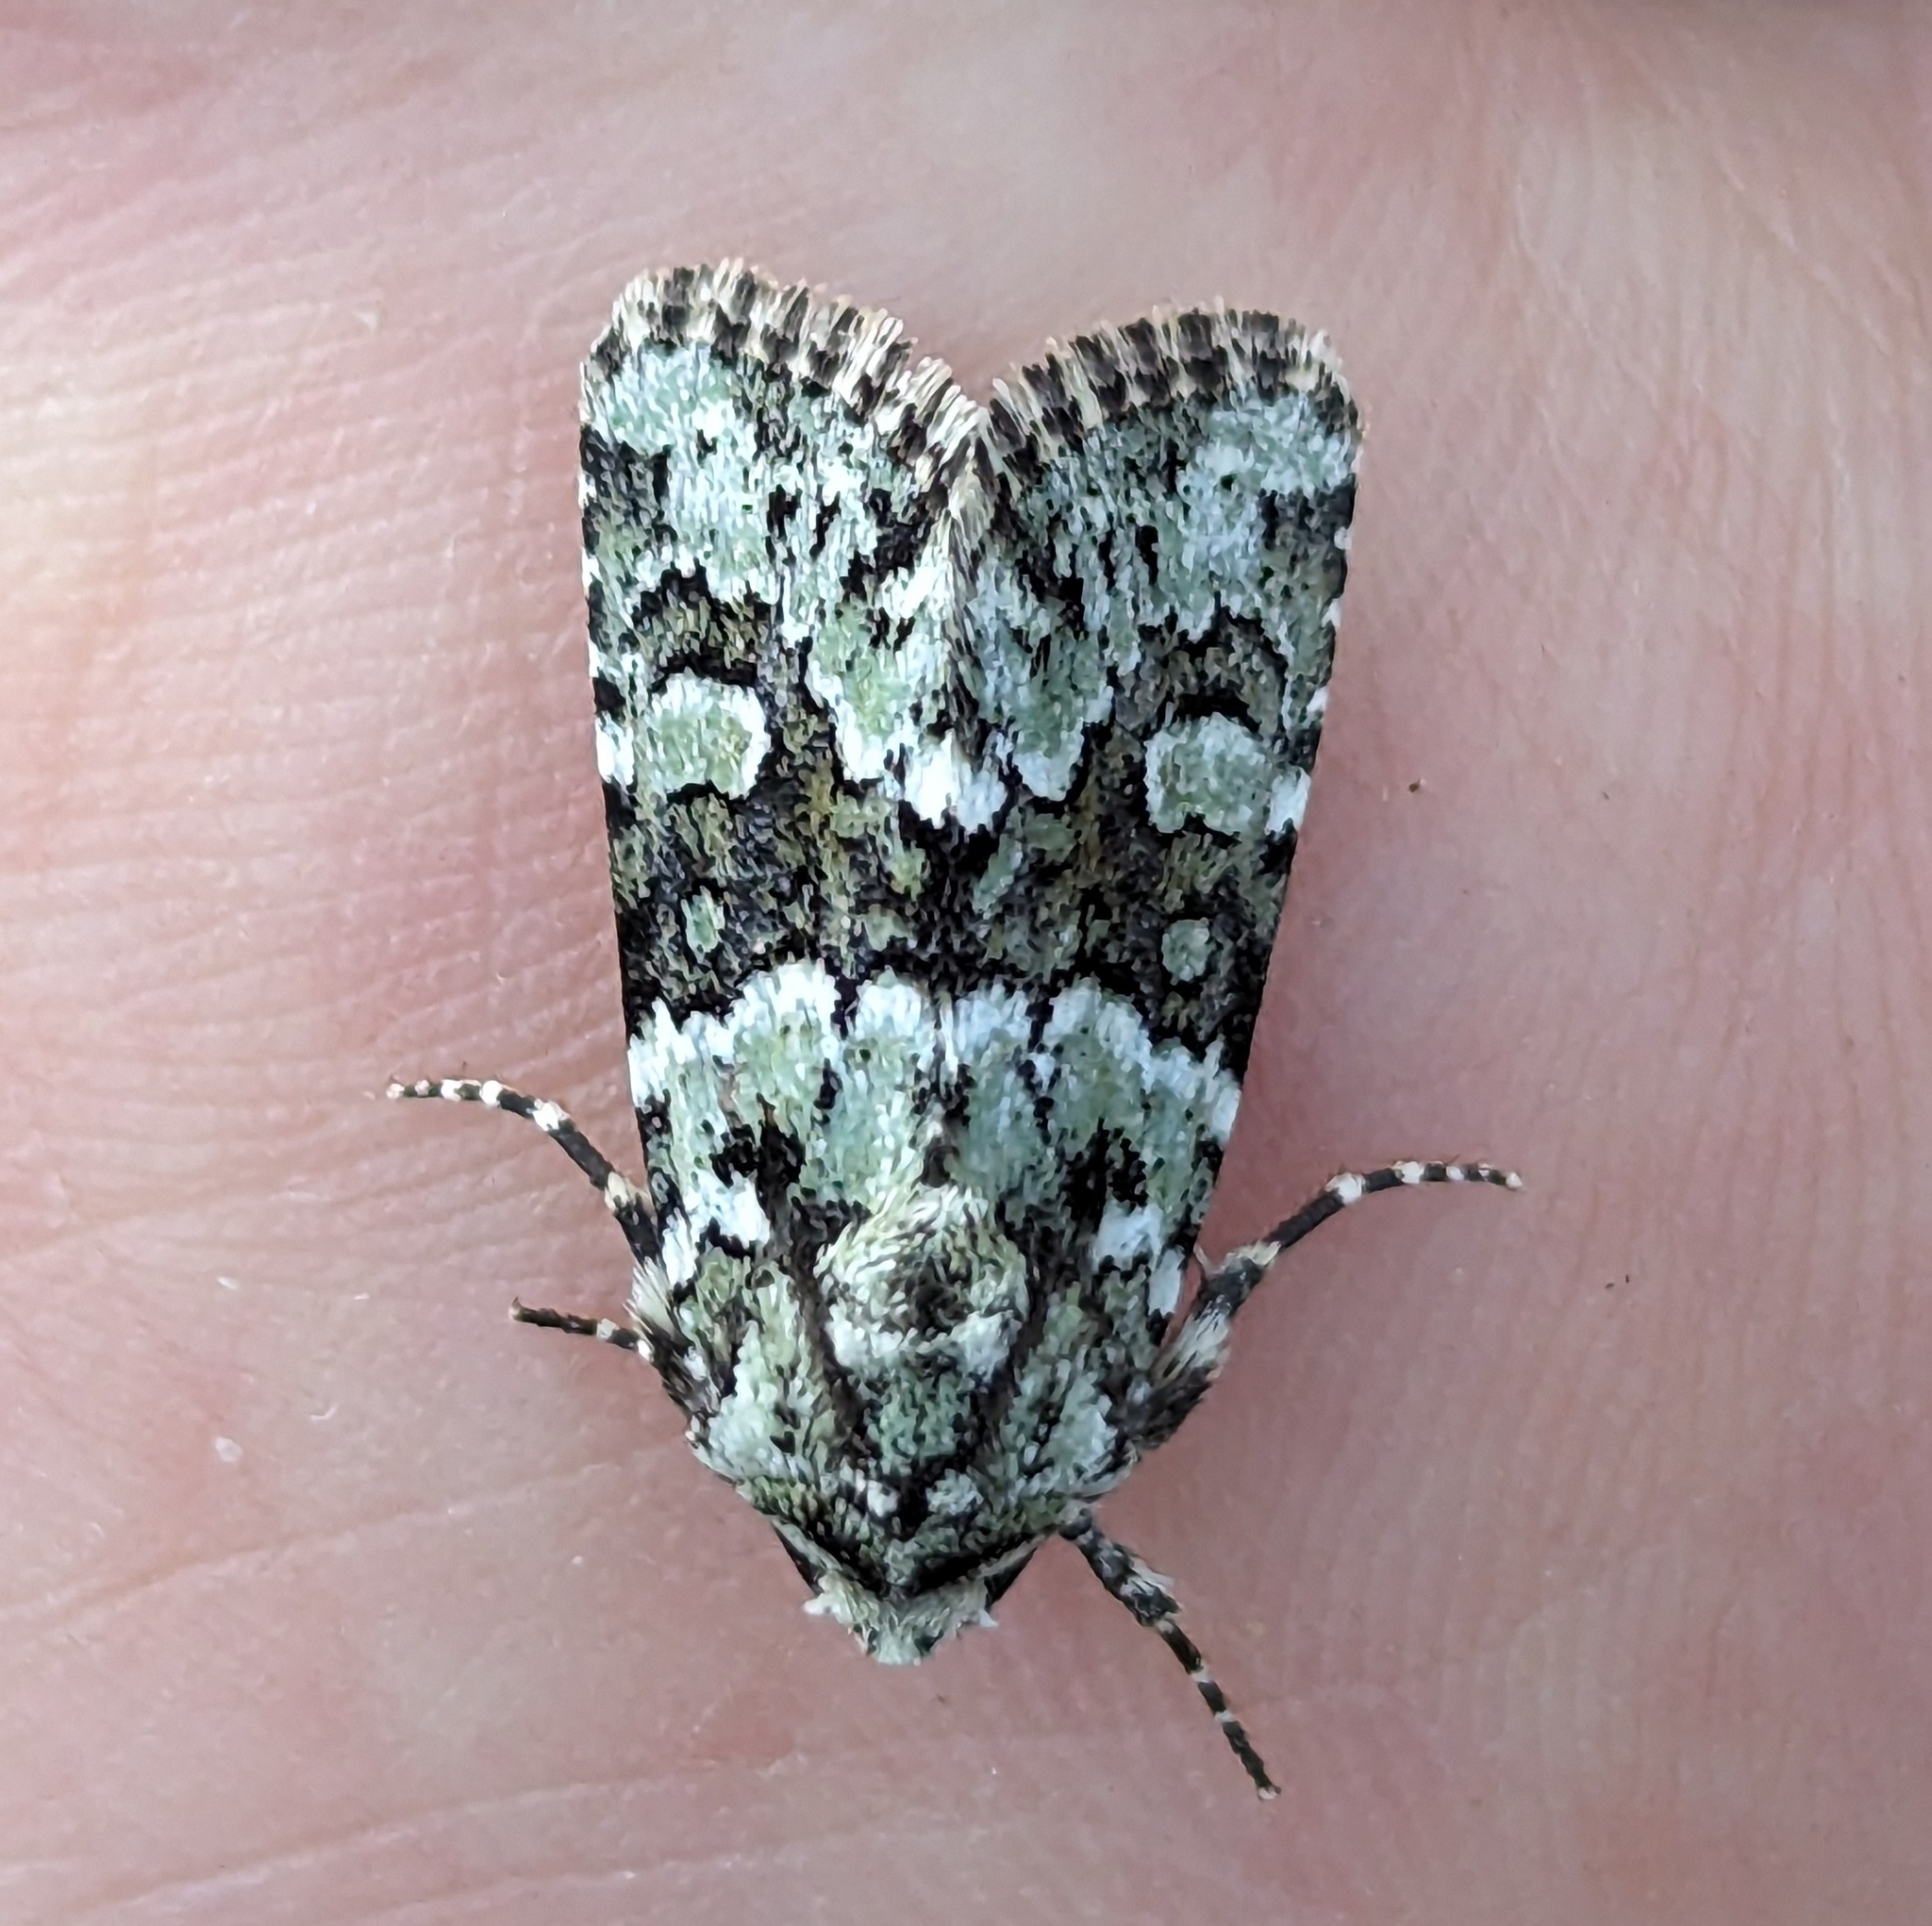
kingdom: Animalia
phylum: Arthropoda
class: Insecta
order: Lepidoptera
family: Noctuidae
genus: Lacinipolia
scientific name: Lacinipolia strigicollis
